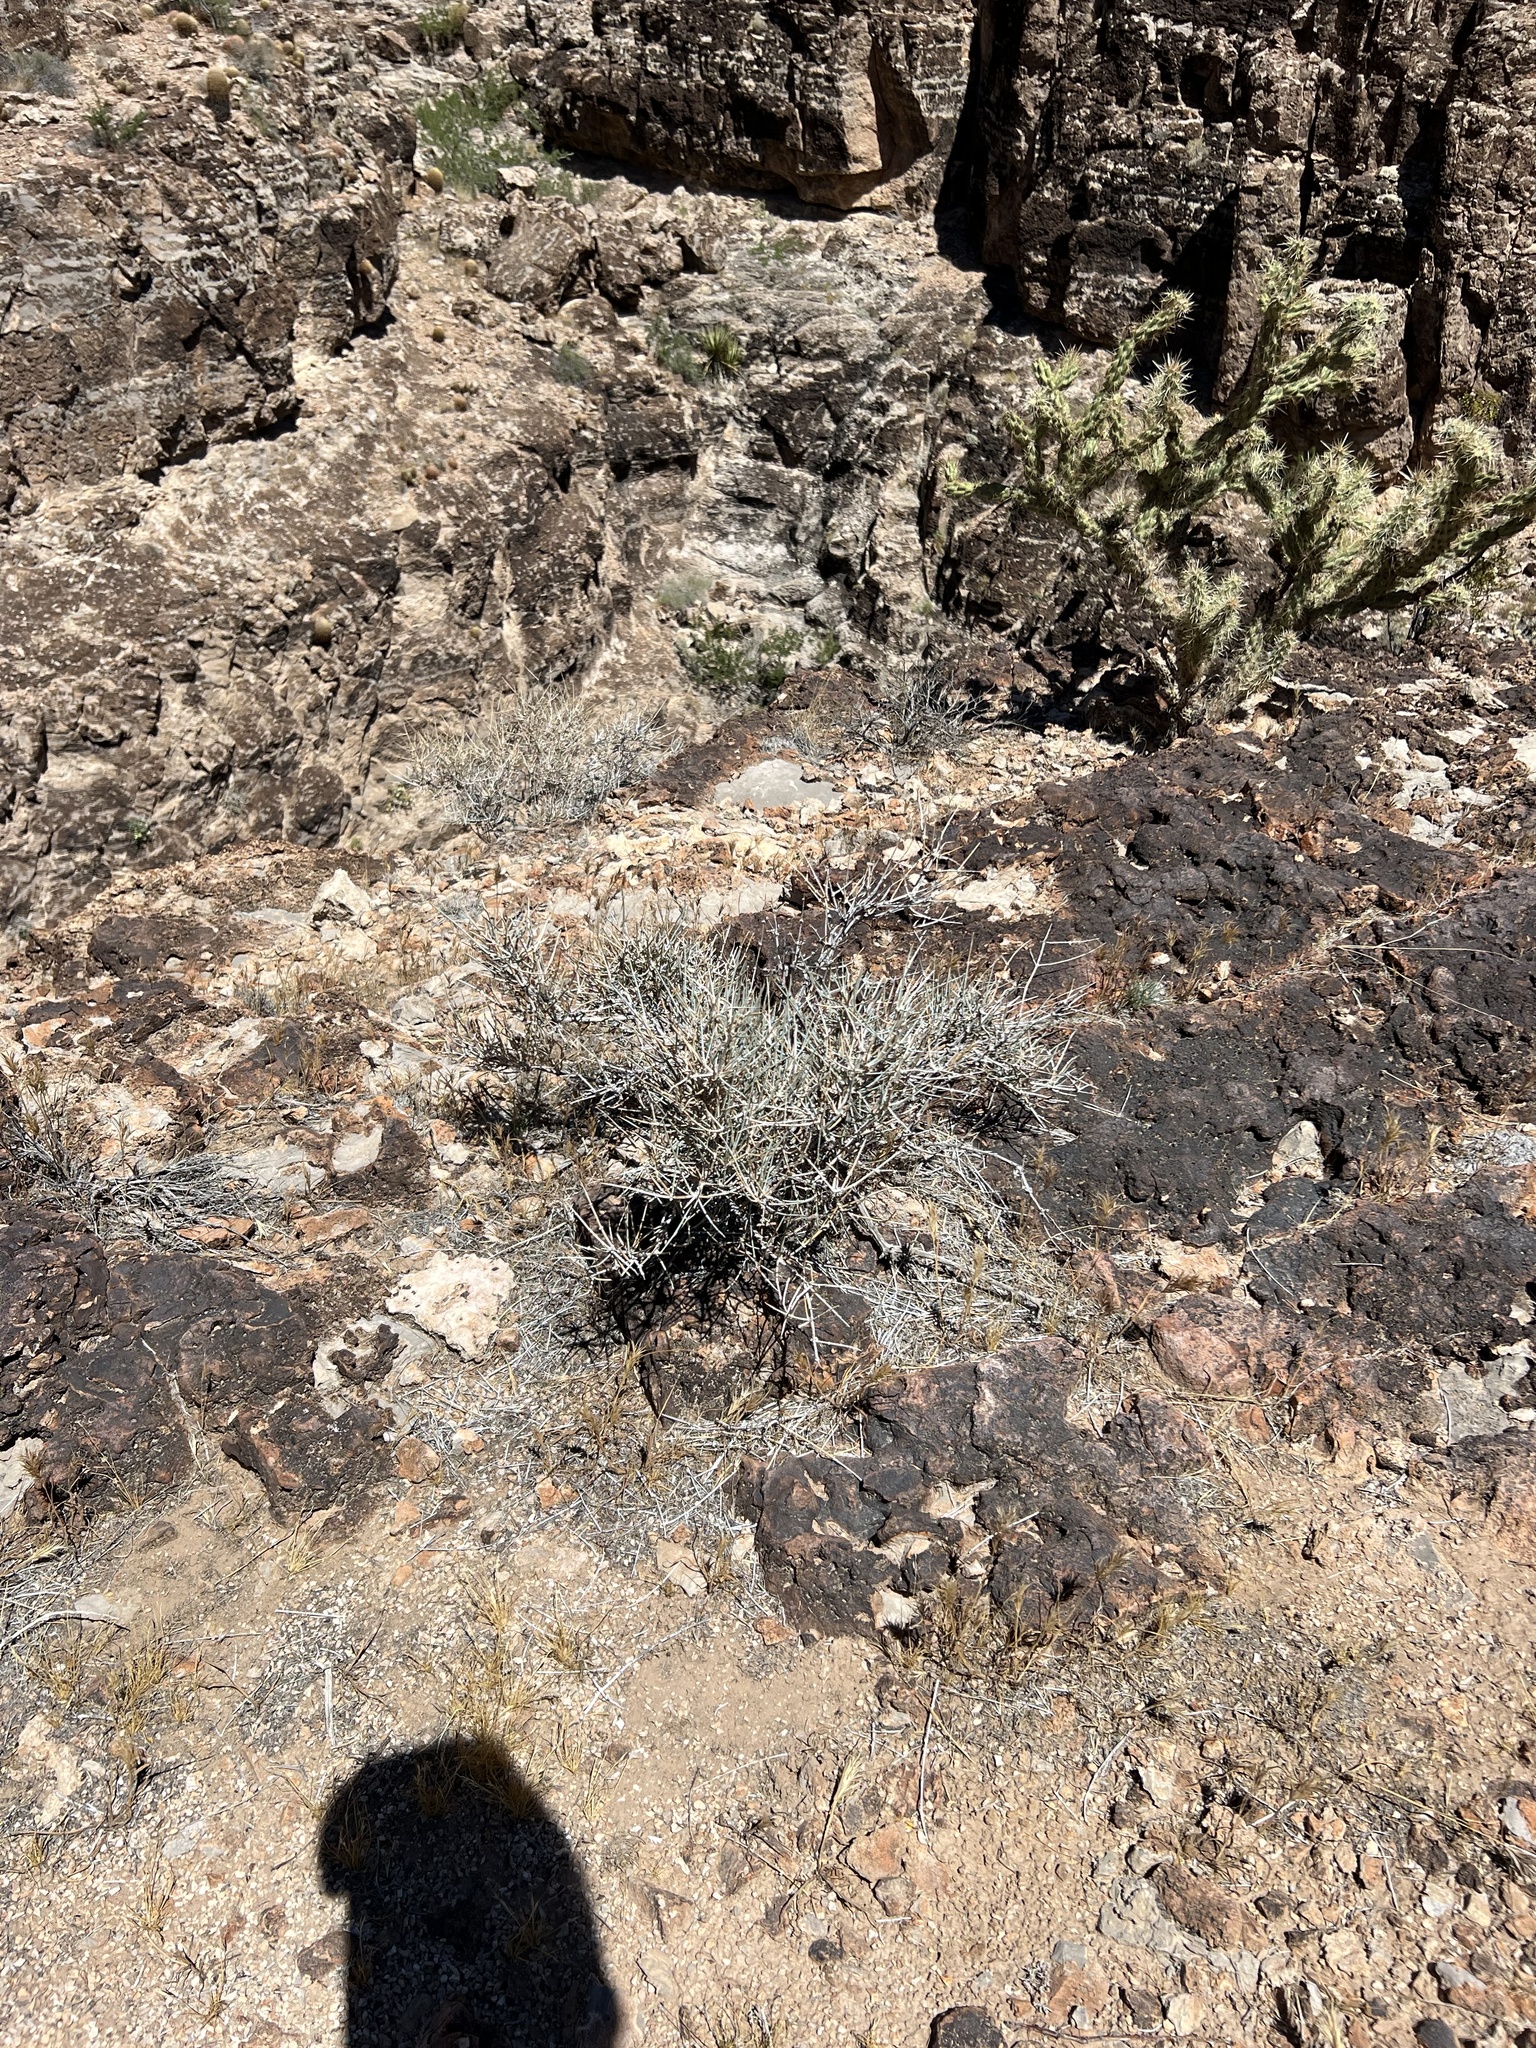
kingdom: Plantae
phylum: Tracheophyta
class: Gnetopsida
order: Ephedrales
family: Ephedraceae
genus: Ephedra
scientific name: Ephedra nevadensis
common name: Gray ephedra
